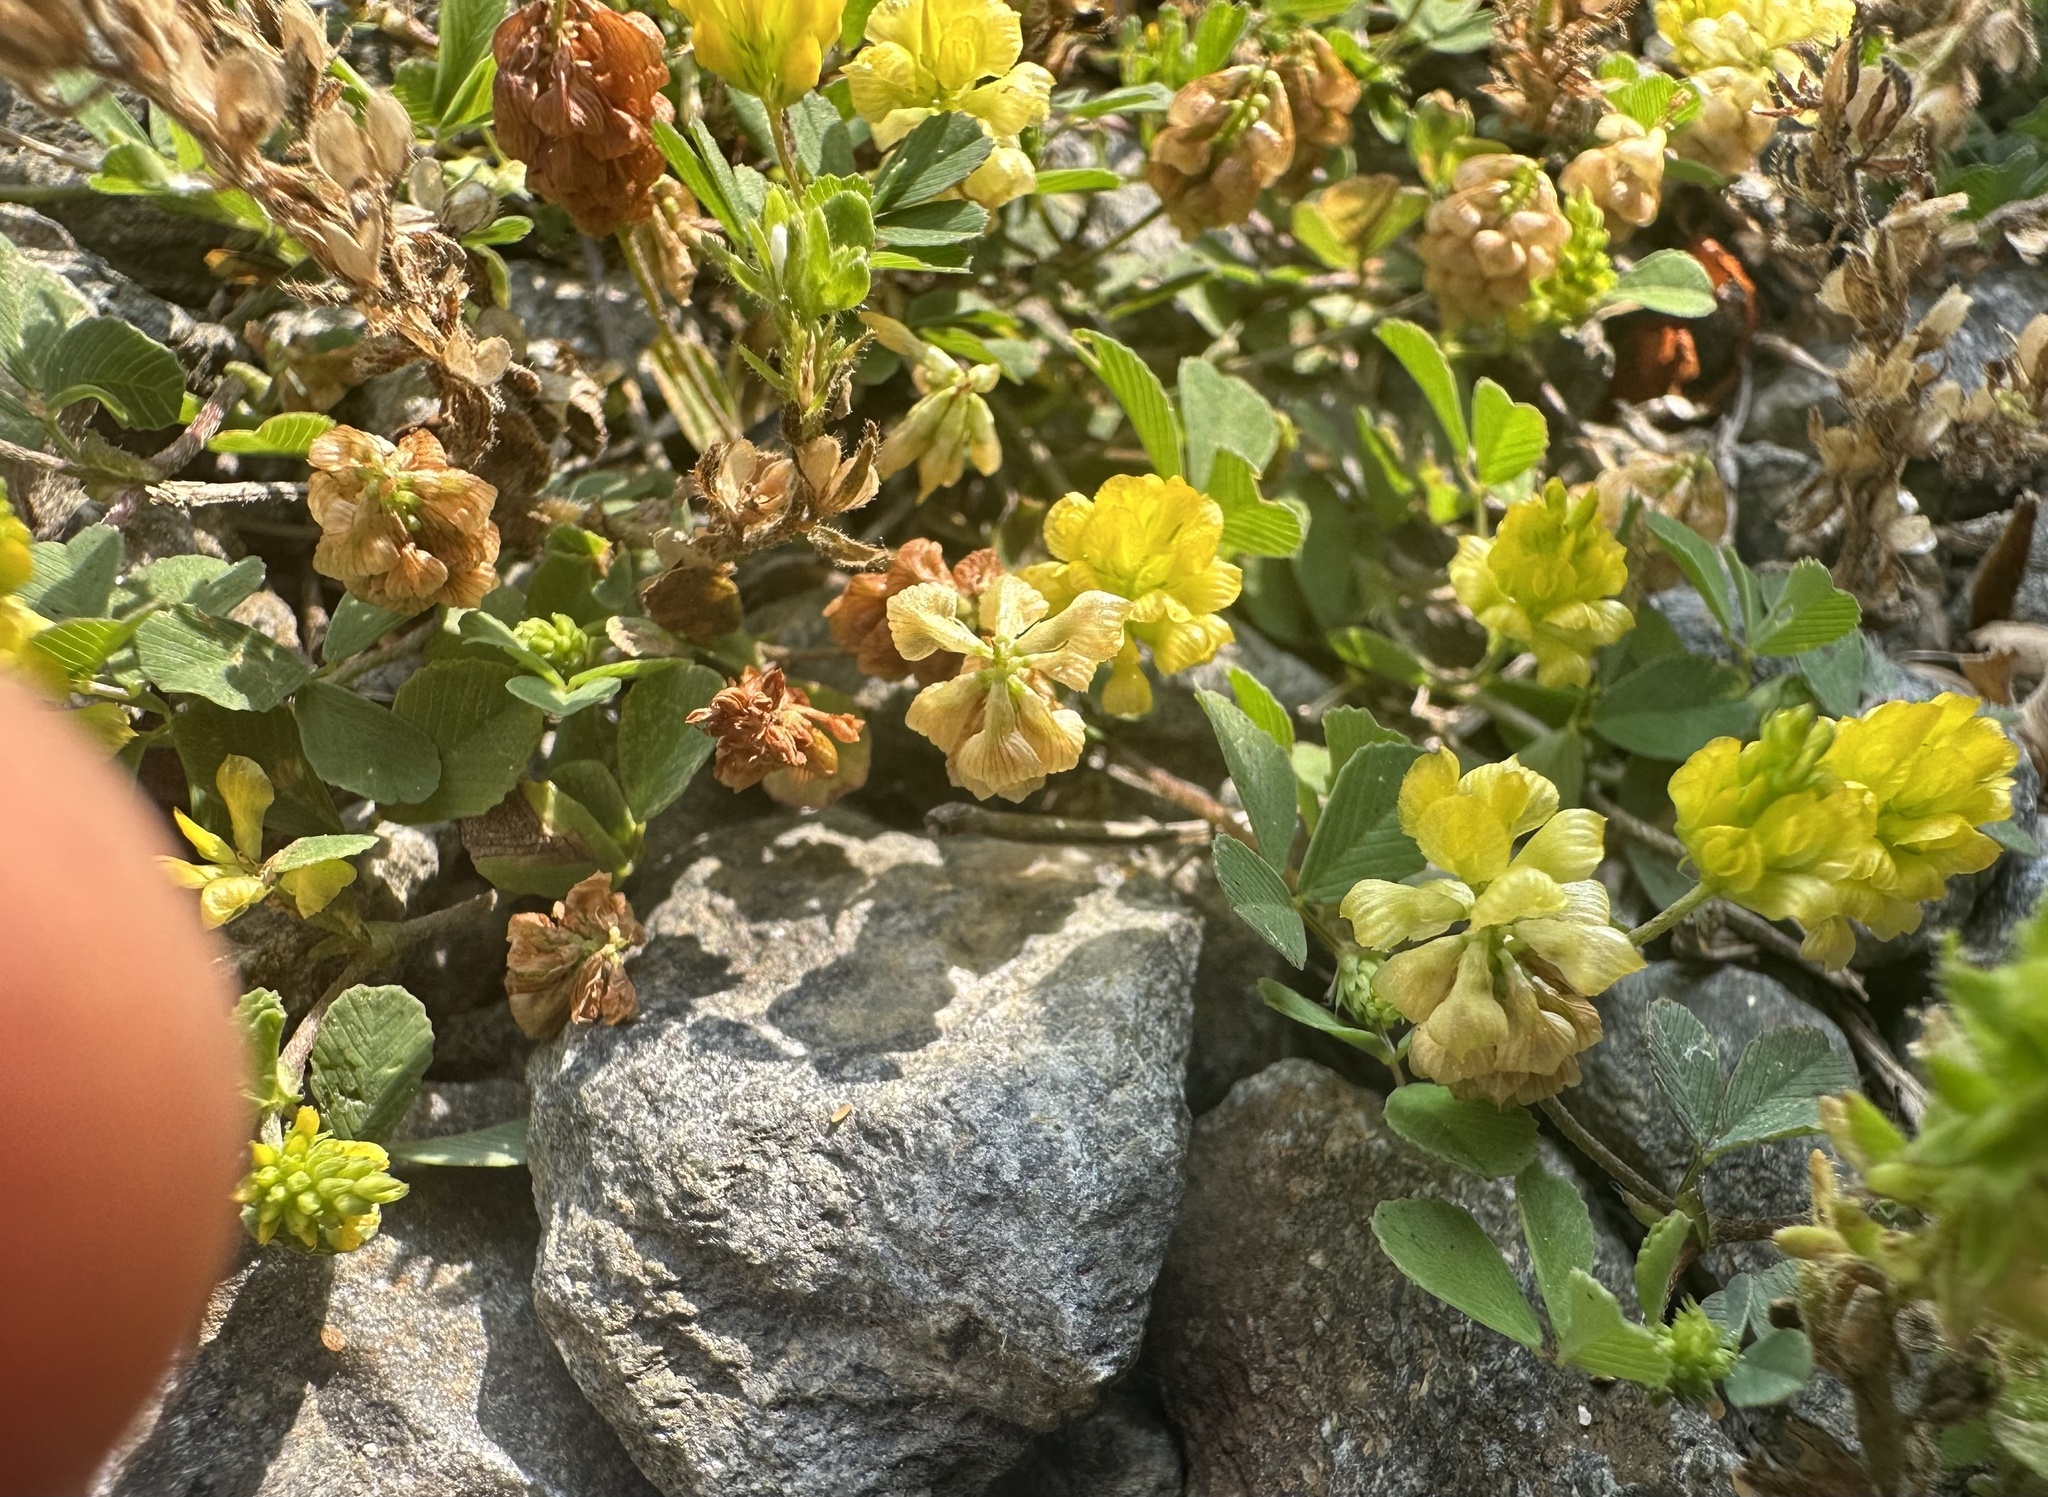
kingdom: Plantae
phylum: Tracheophyta
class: Magnoliopsida
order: Fabales
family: Fabaceae
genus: Trifolium
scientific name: Trifolium campestre
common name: Field clover
